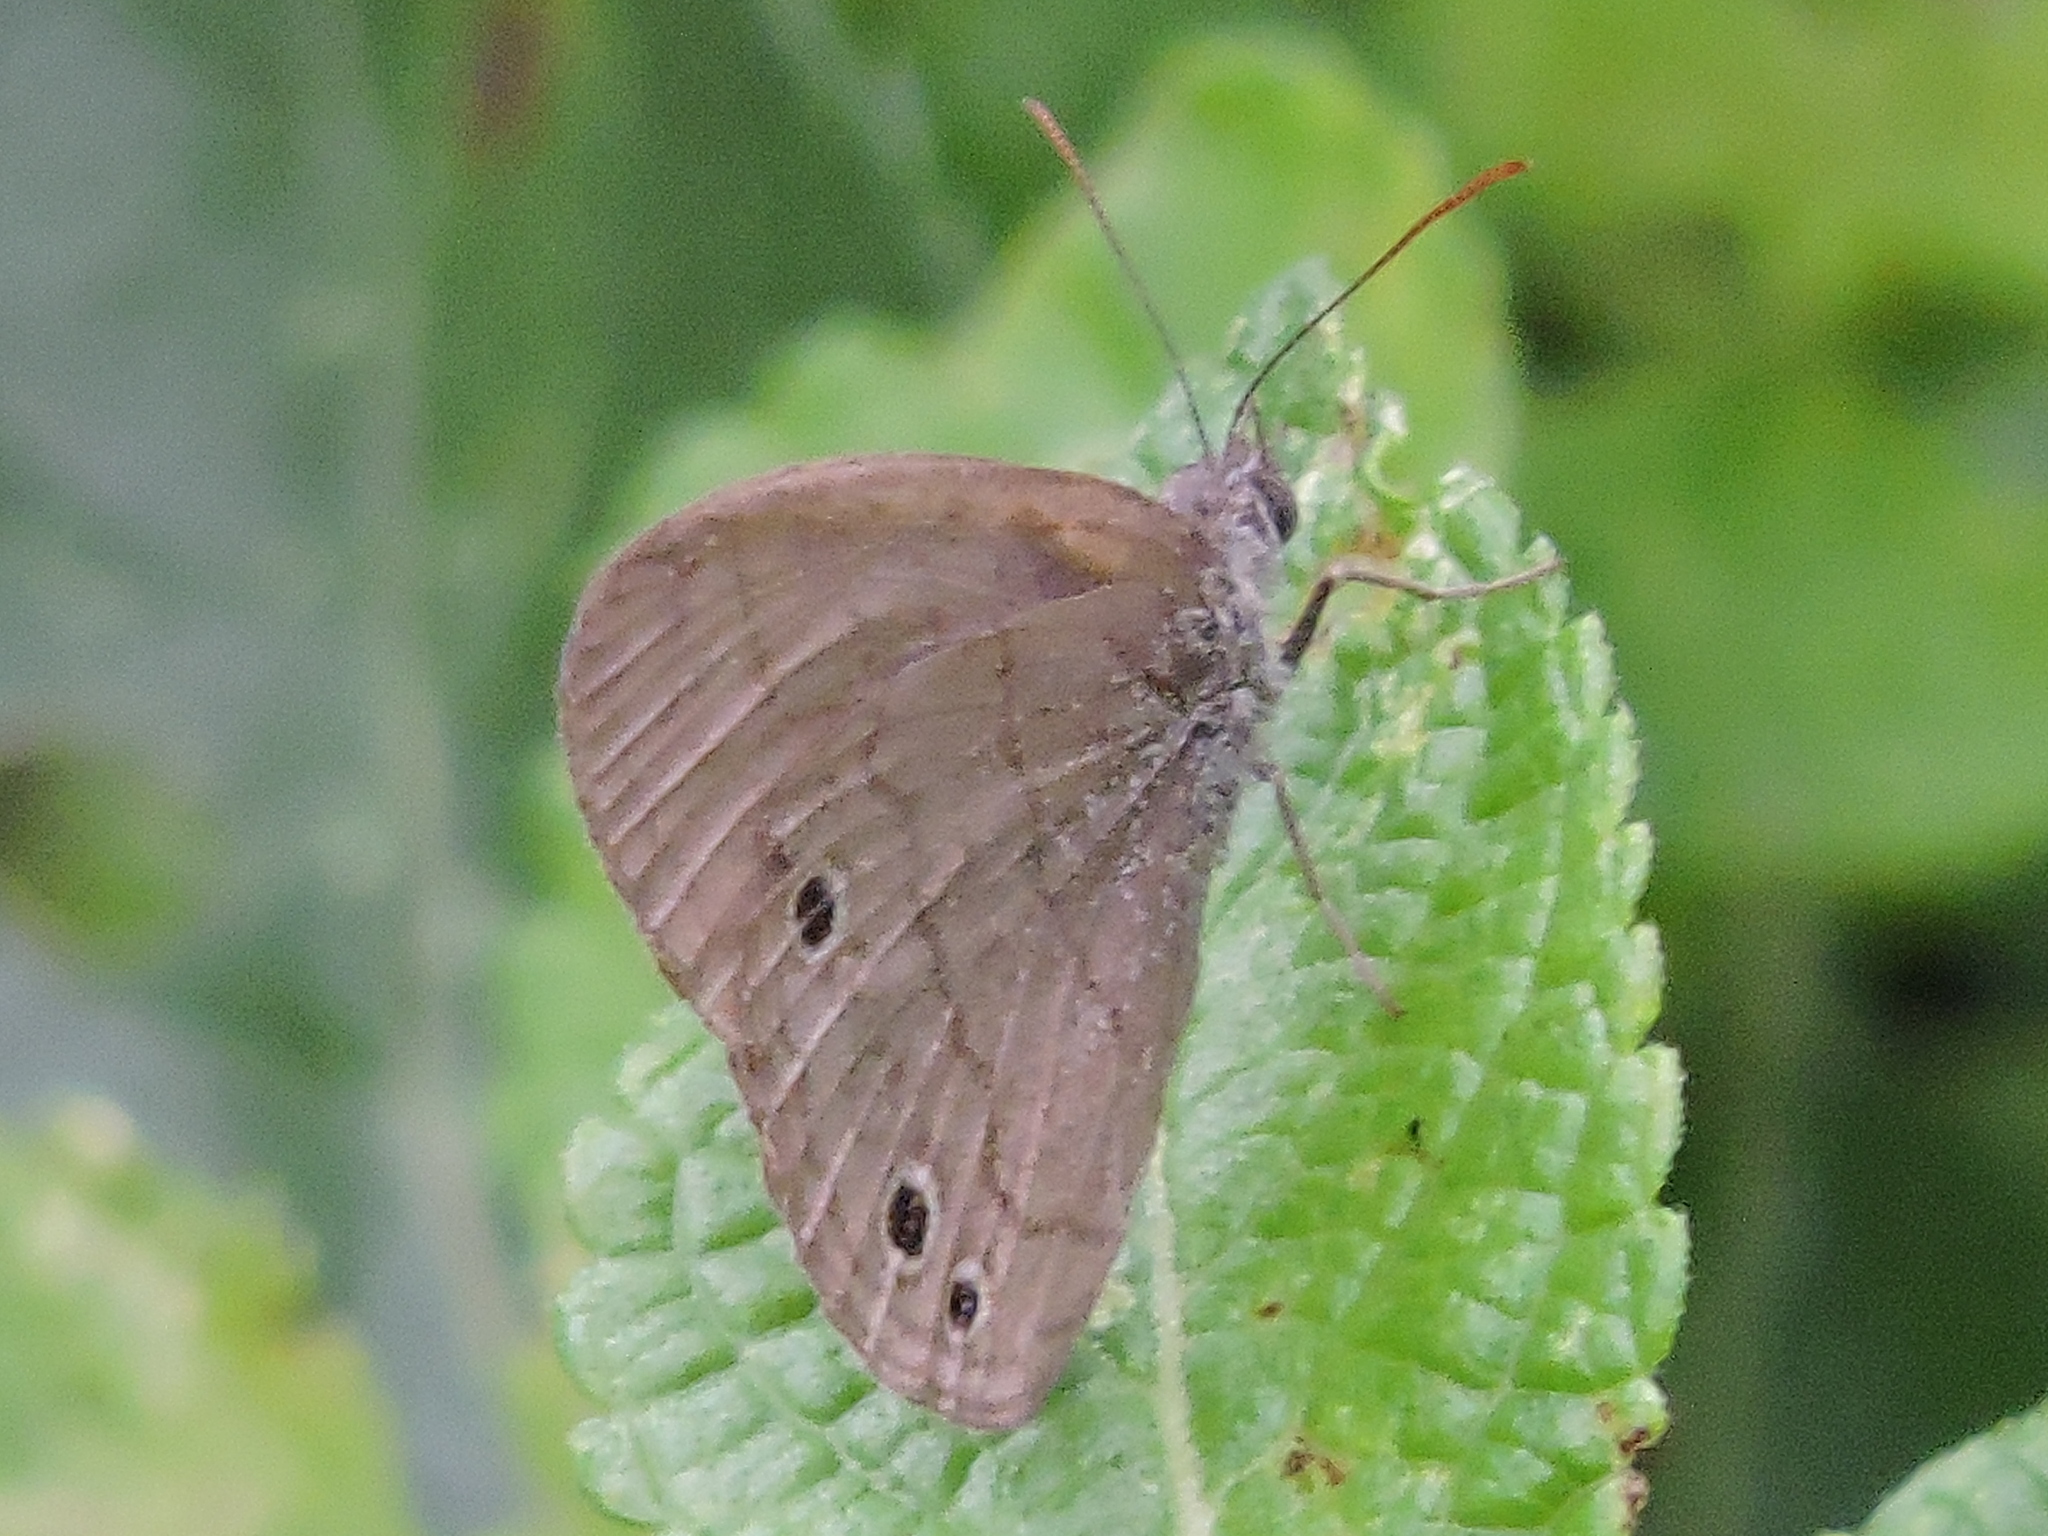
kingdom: Animalia
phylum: Arthropoda
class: Insecta
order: Lepidoptera
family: Nymphalidae
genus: Hermeuptychia
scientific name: Hermeuptychia hermybius
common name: South texas satyr
